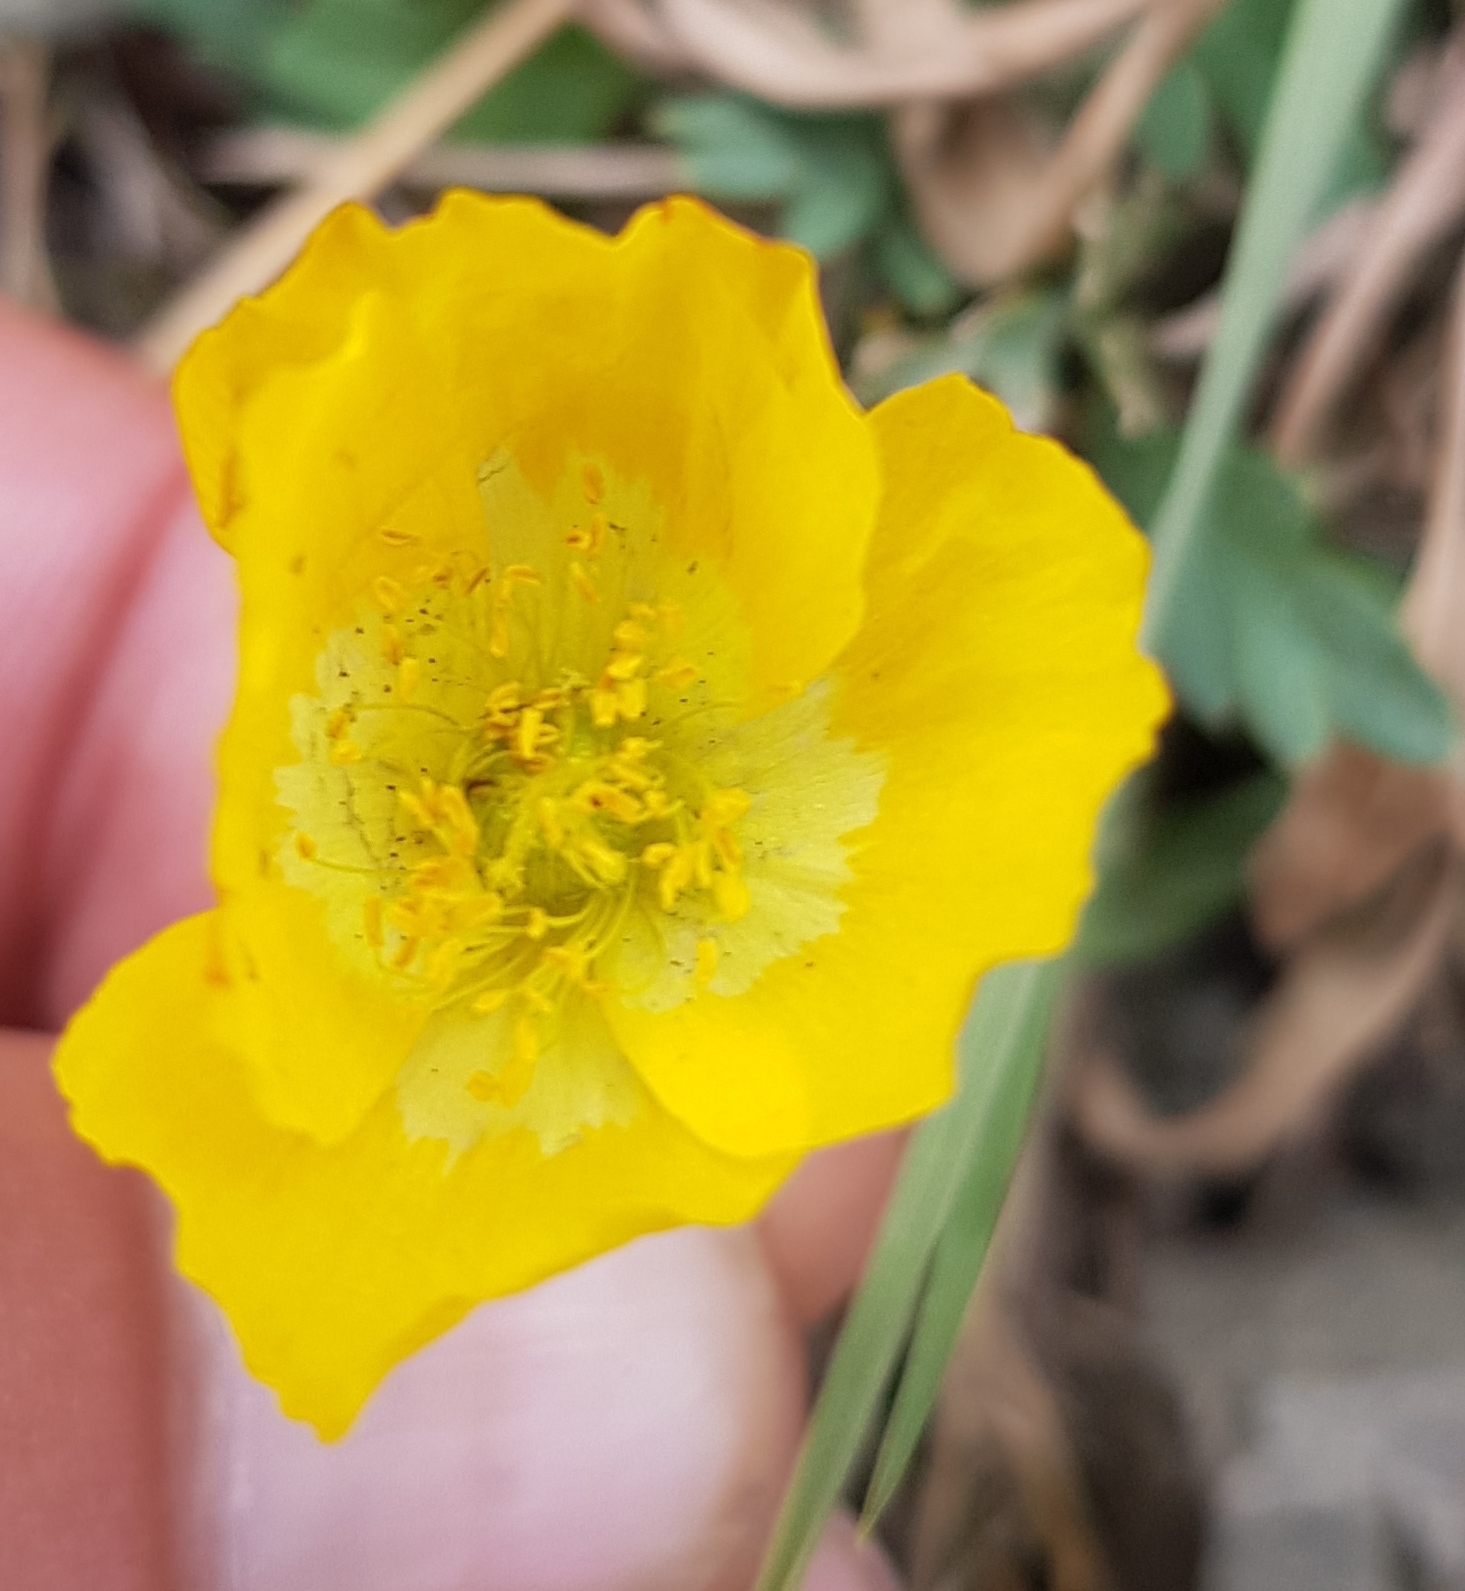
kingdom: Plantae
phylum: Tracheophyta
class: Magnoliopsida
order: Ranunculales
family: Papaveraceae
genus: Papaver
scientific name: Papaver nudicaule
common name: Arctic poppy
